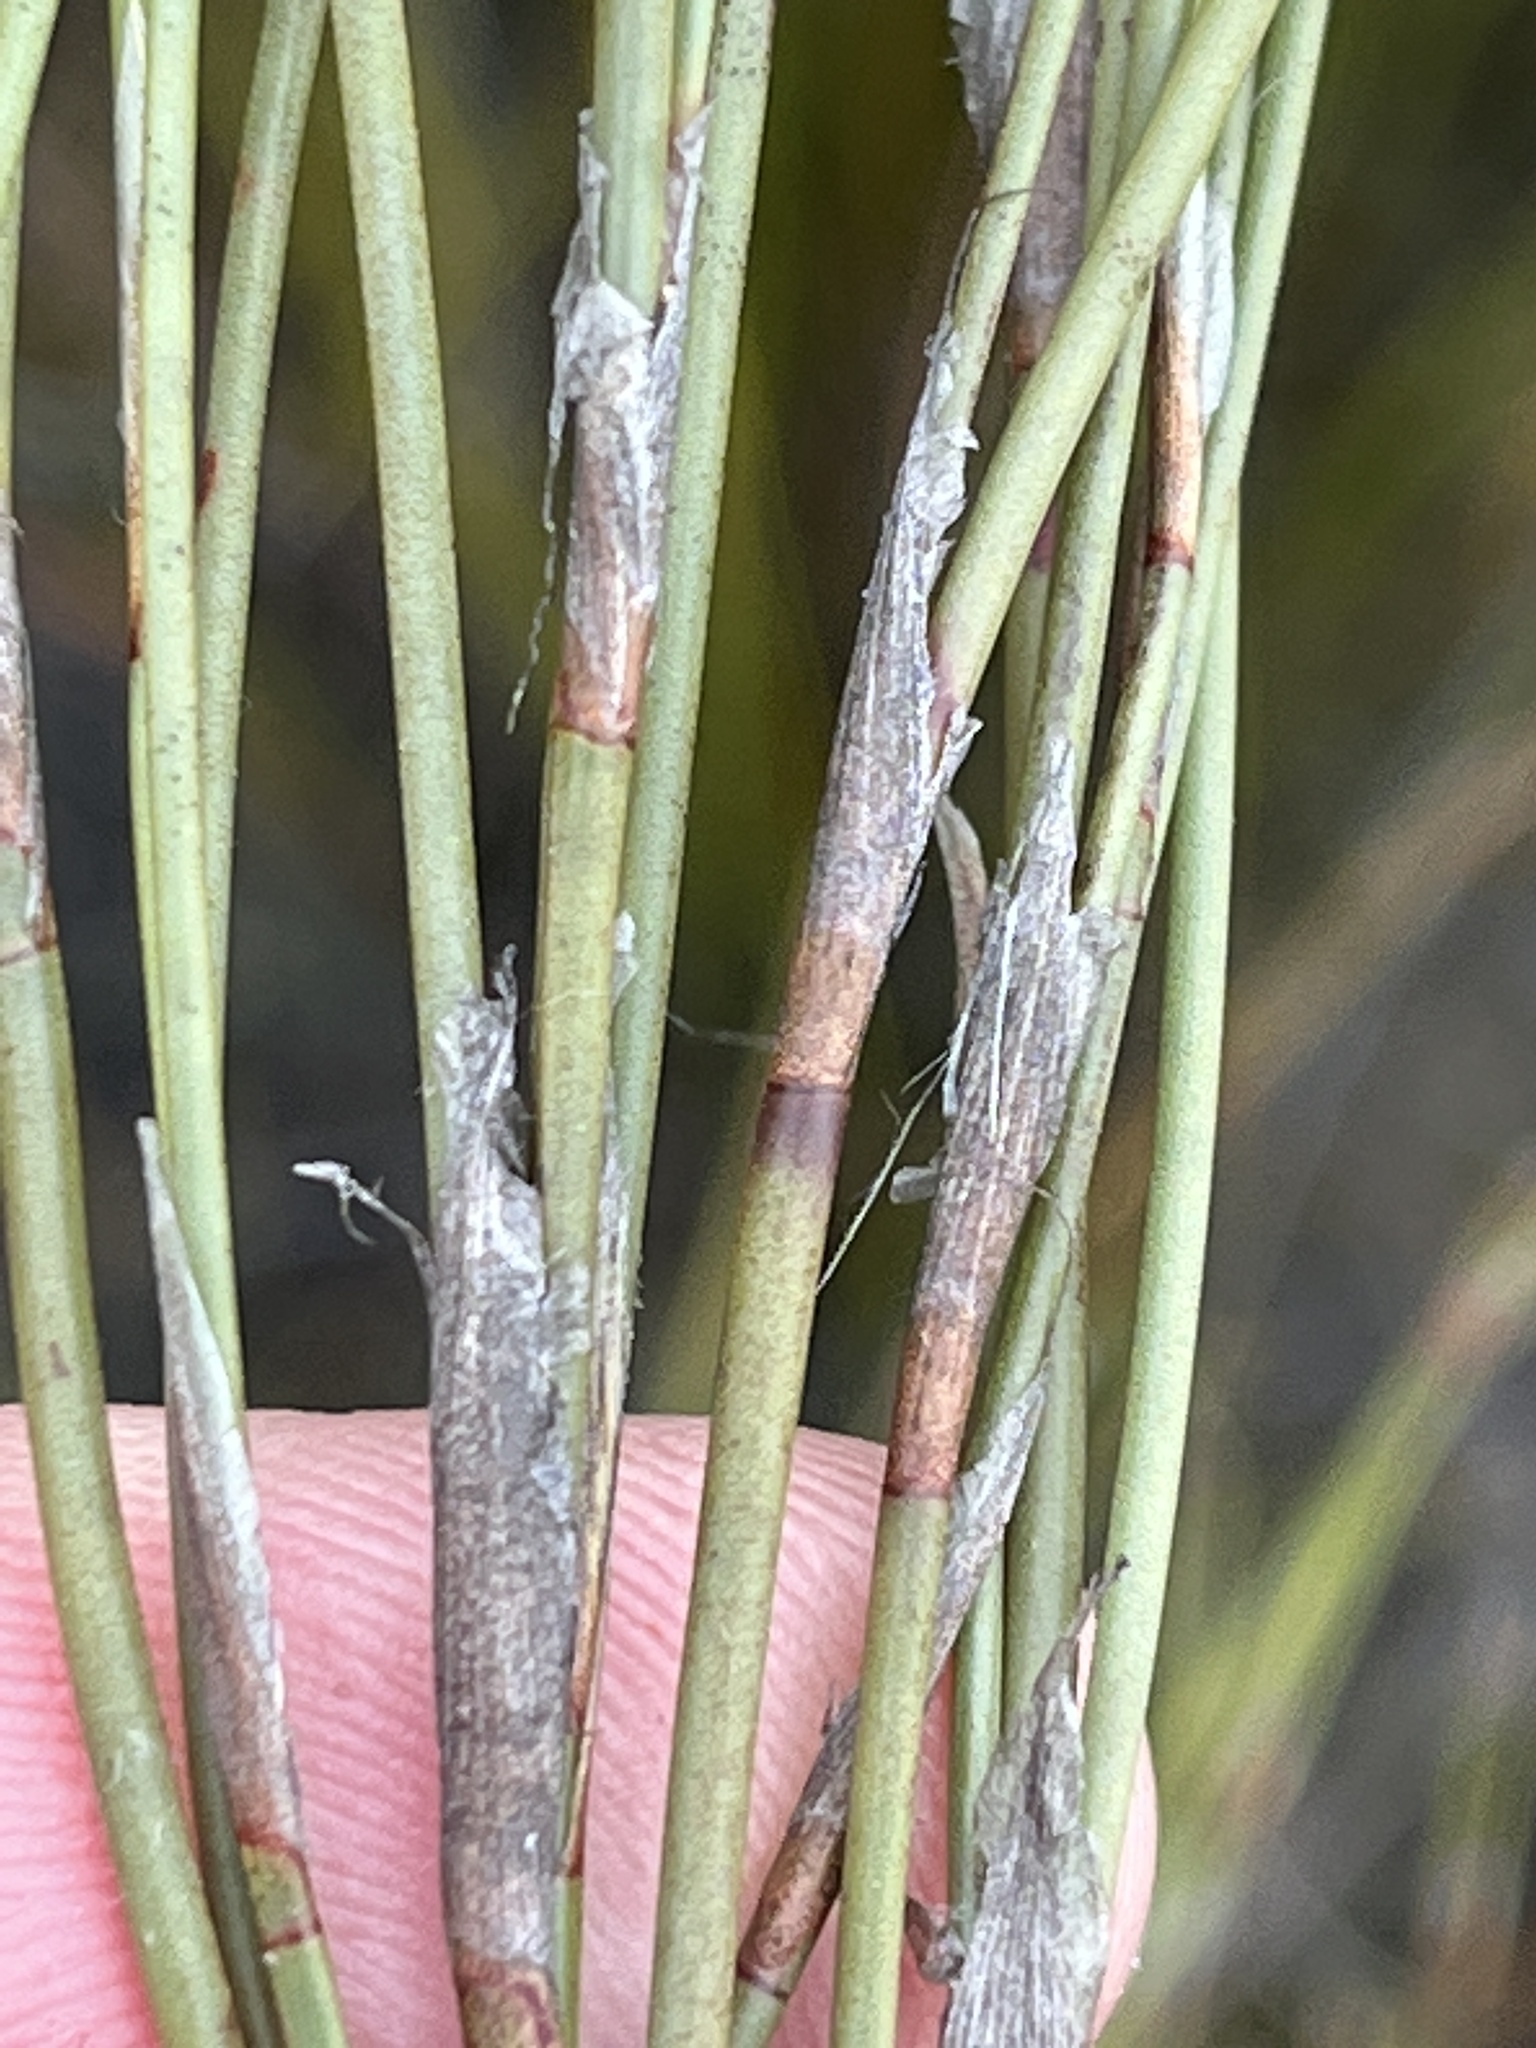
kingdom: Plantae
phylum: Tracheophyta
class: Liliopsida
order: Poales
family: Restionaceae
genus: Hydrophilus
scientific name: Hydrophilus rattrayi
